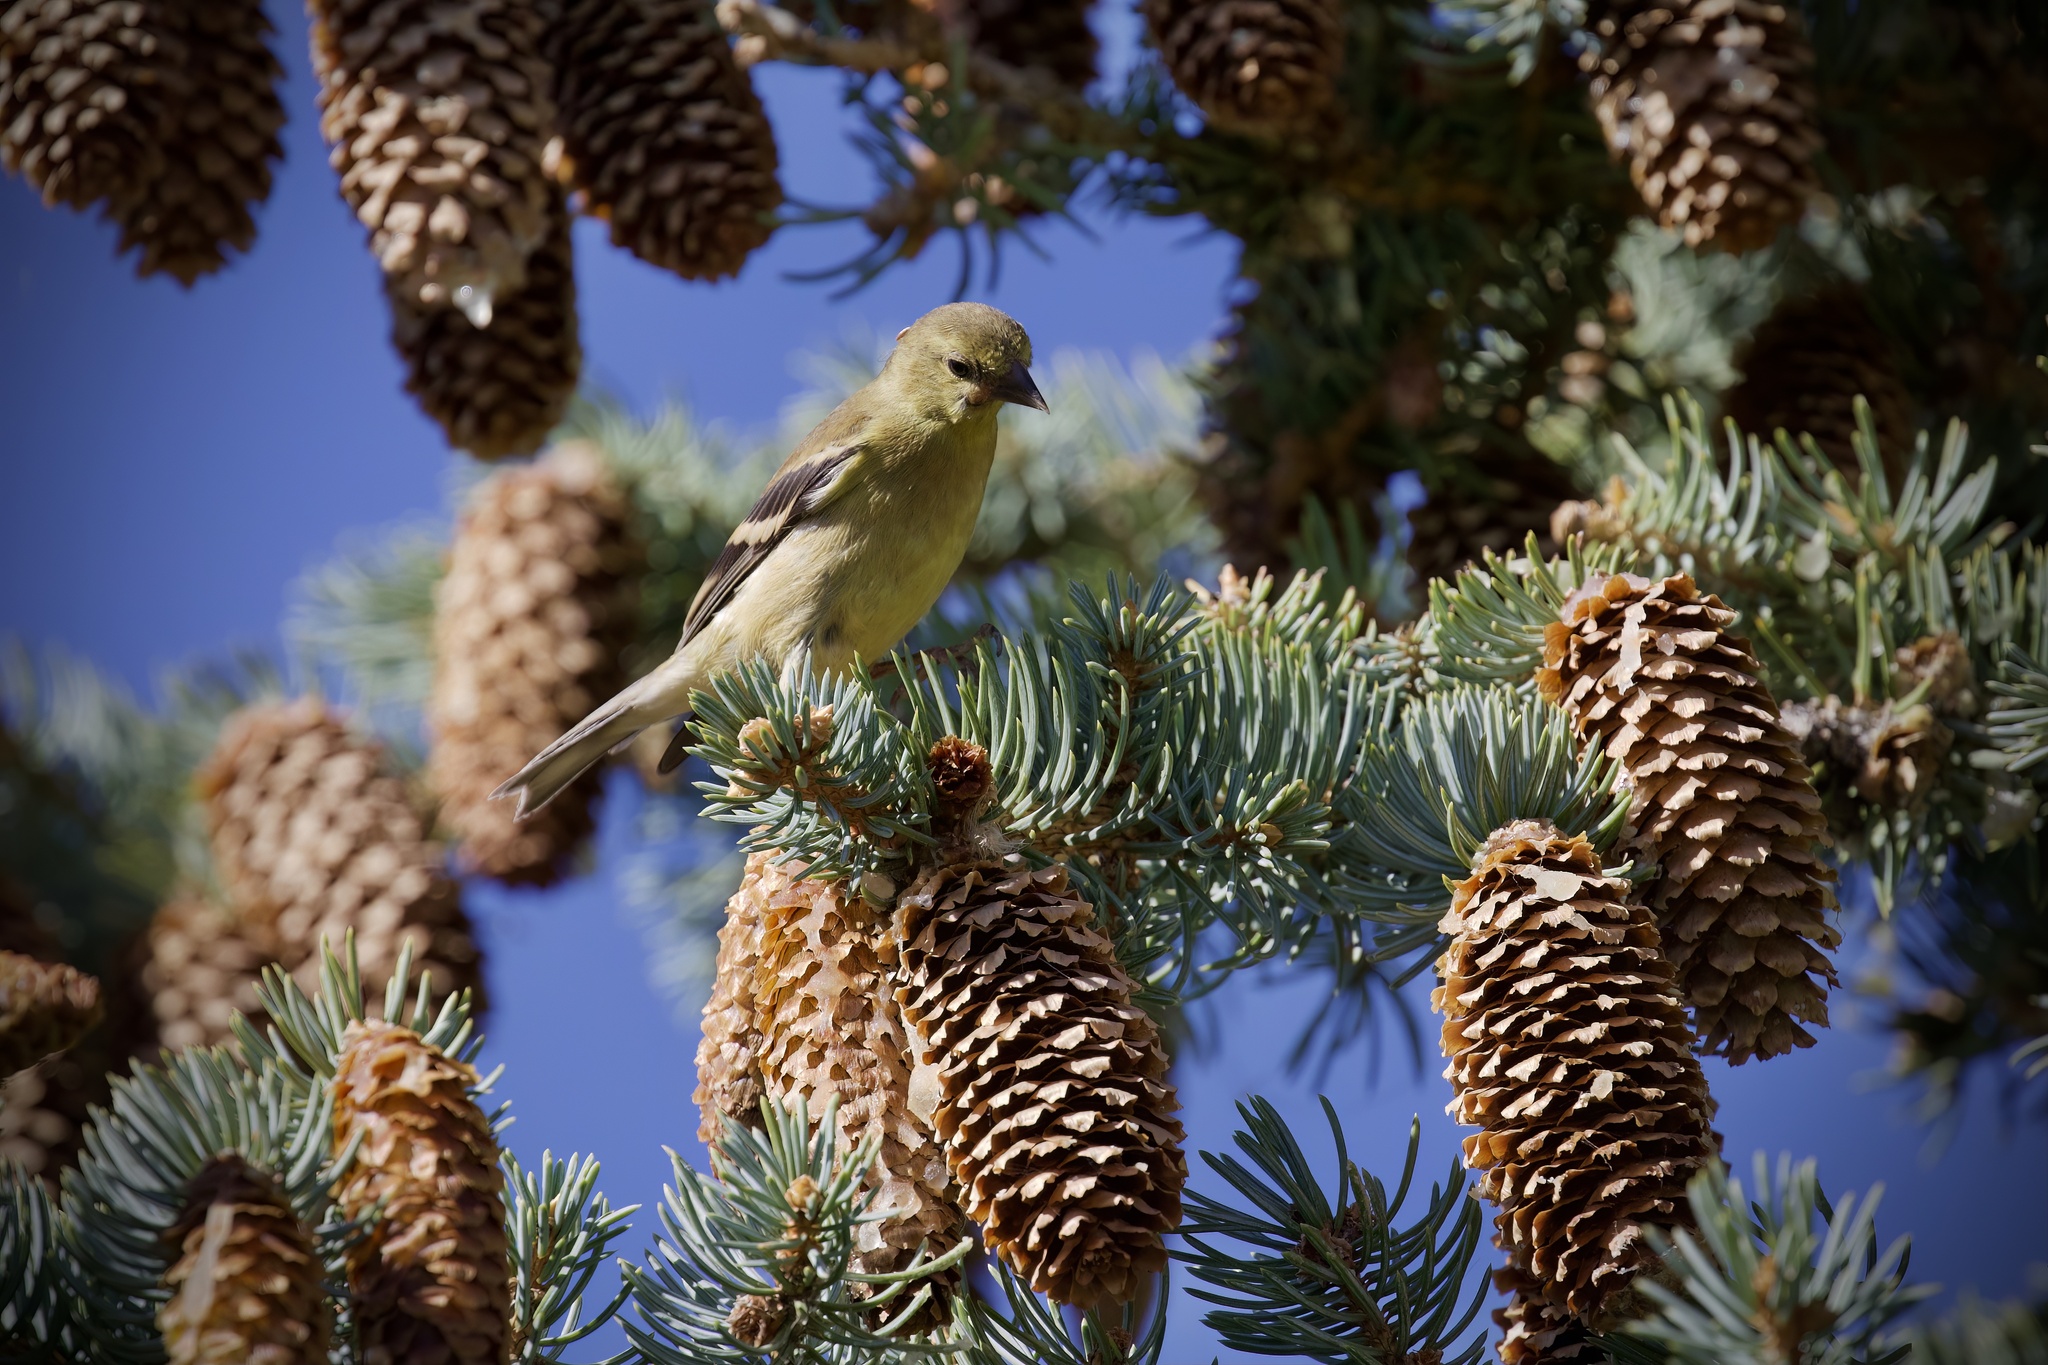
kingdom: Animalia
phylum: Chordata
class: Aves
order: Passeriformes
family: Fringillidae
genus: Spinus
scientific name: Spinus tristis
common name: American goldfinch
